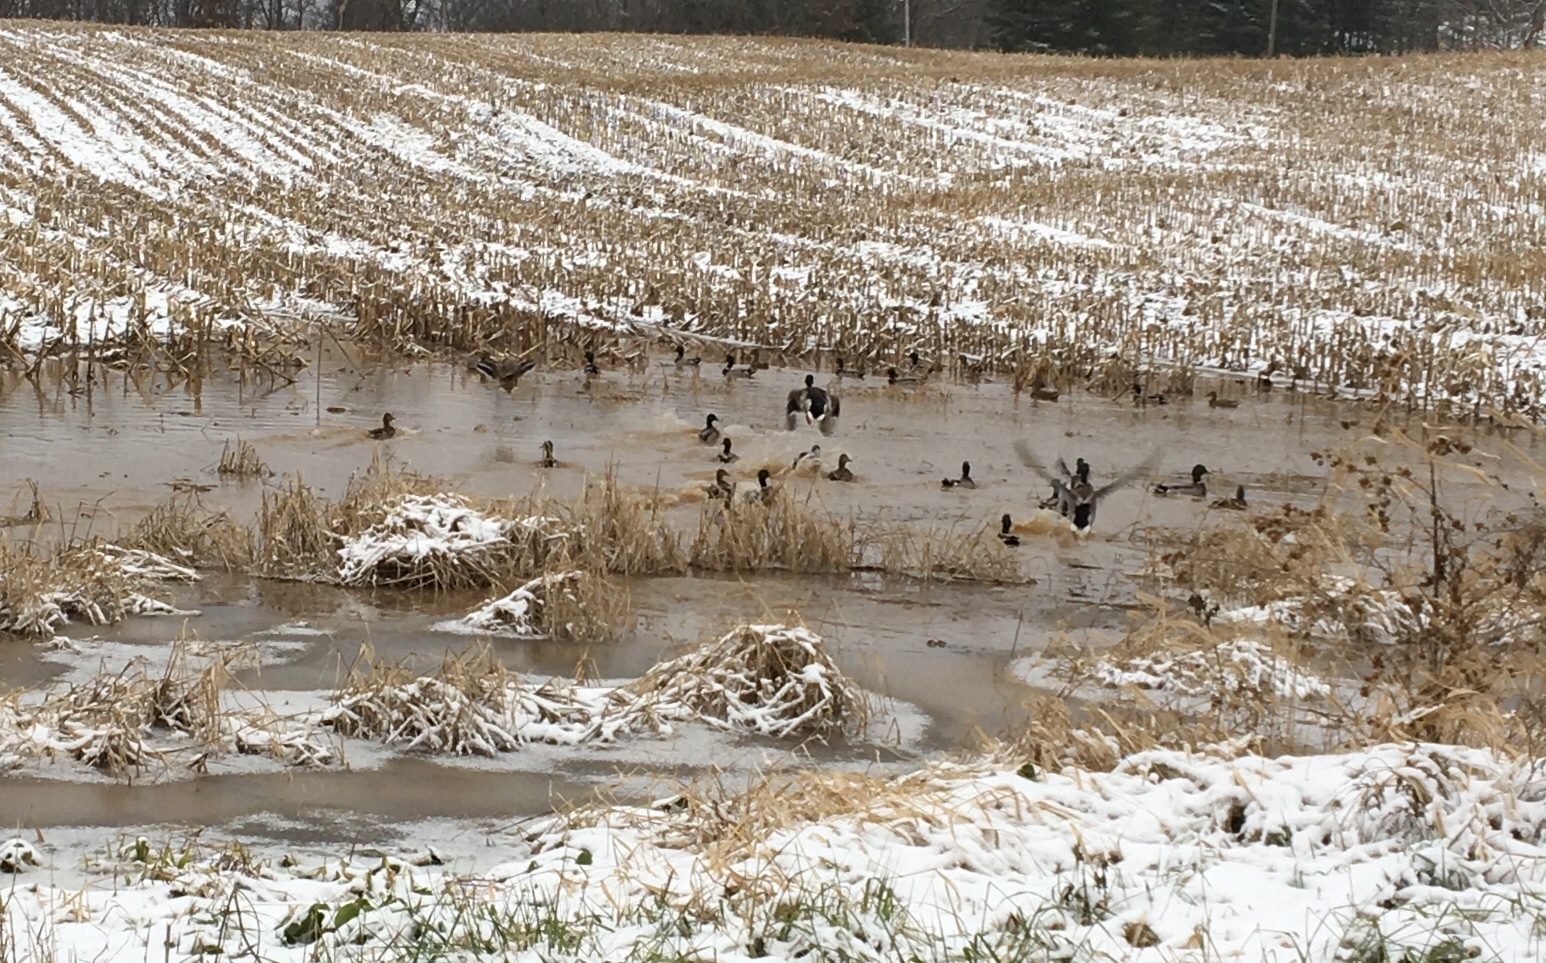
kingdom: Animalia
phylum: Chordata
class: Aves
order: Anseriformes
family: Anatidae
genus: Anas
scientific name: Anas platyrhynchos
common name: Mallard
